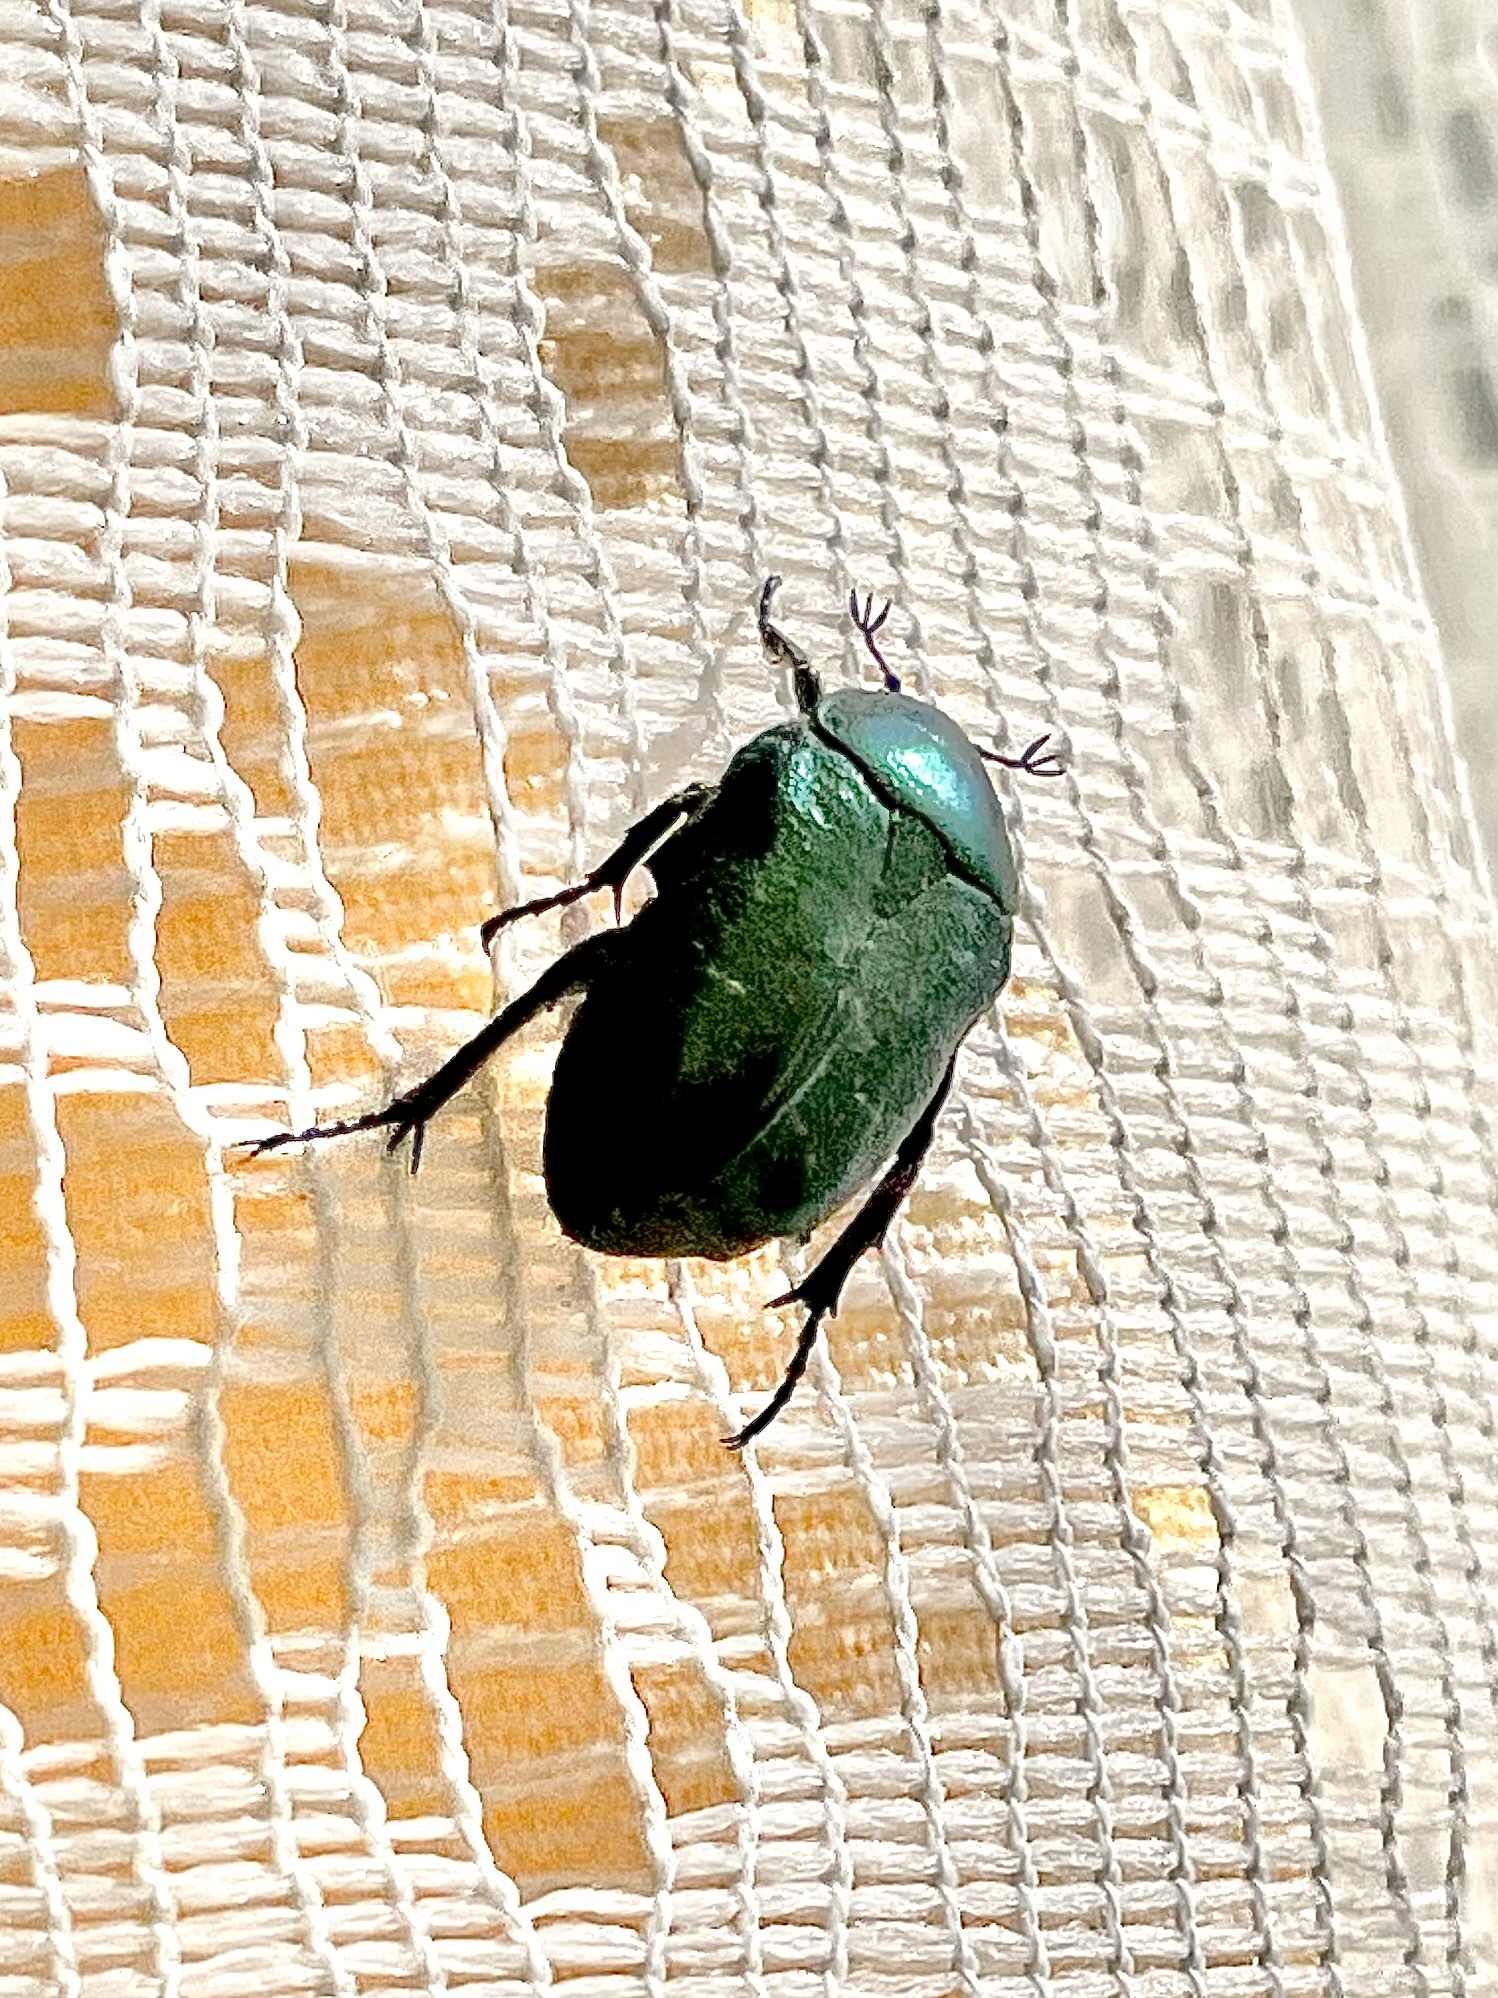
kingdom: Animalia
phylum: Arthropoda
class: Insecta
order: Coleoptera
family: Scarabaeidae
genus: Cetonia
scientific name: Cetonia aurata
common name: Rose chafer
